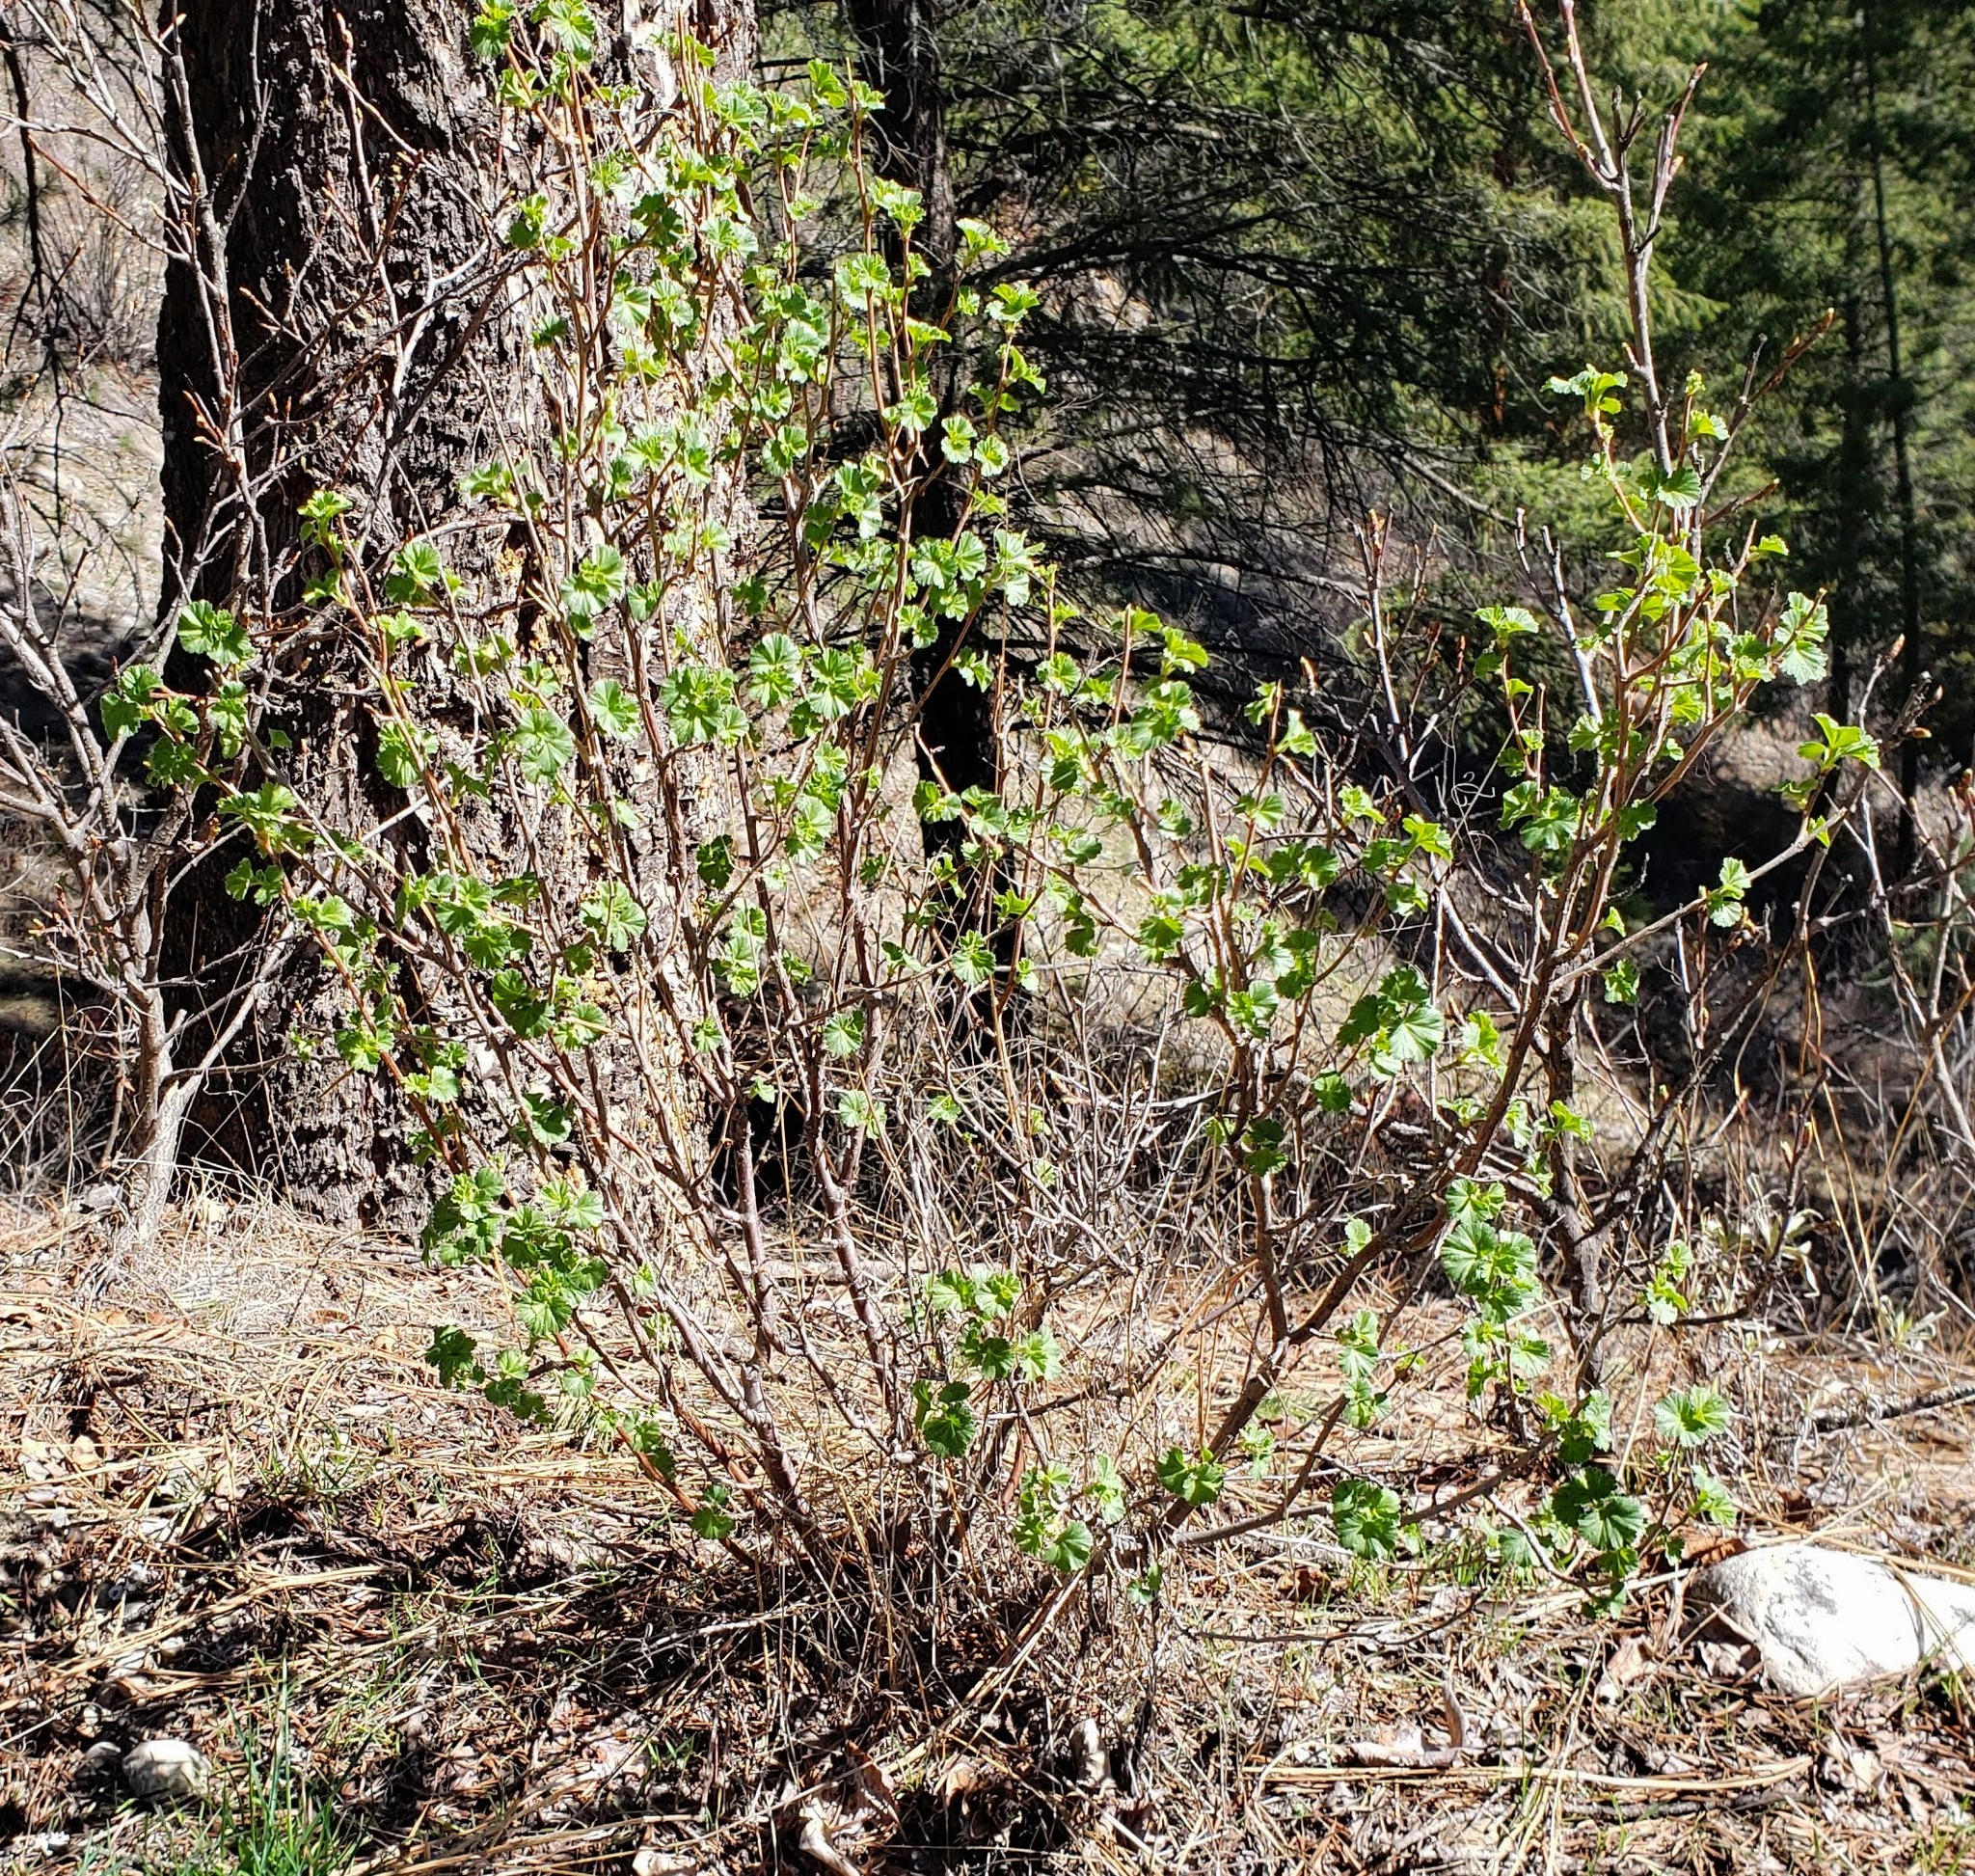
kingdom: Plantae
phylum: Tracheophyta
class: Magnoliopsida
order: Saxifragales
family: Grossulariaceae
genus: Ribes
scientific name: Ribes cereum
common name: Wax currant
